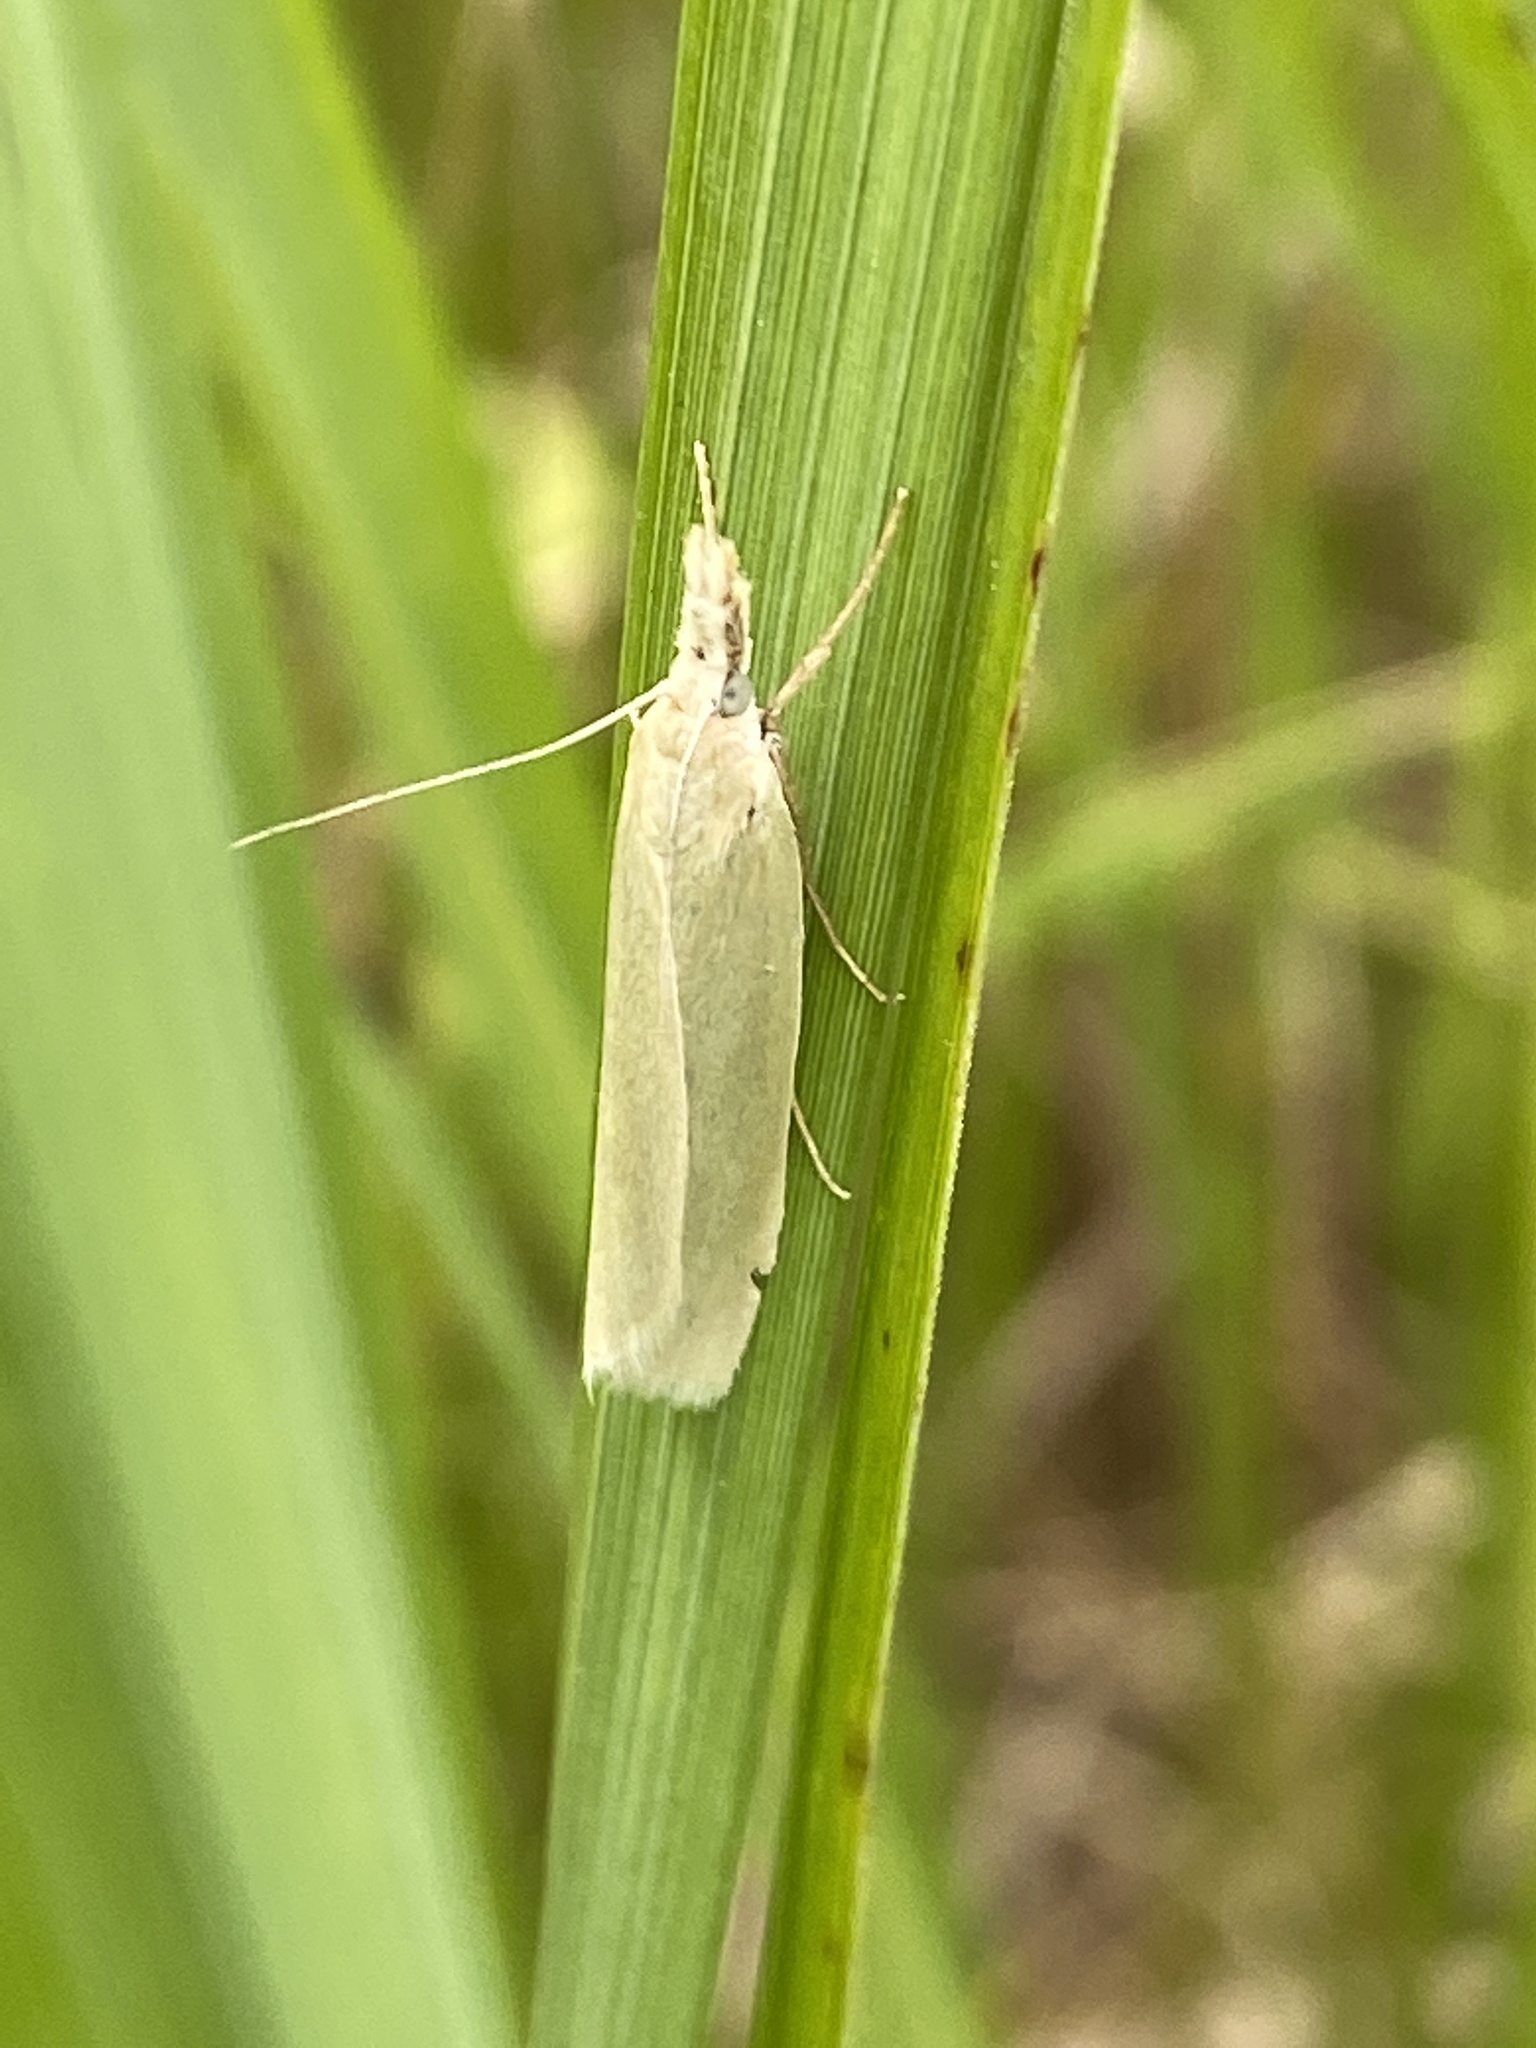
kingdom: Animalia
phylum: Arthropoda
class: Insecta
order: Lepidoptera
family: Crambidae
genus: Crambus
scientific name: Crambus perlellus
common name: Yellow satin veneer
